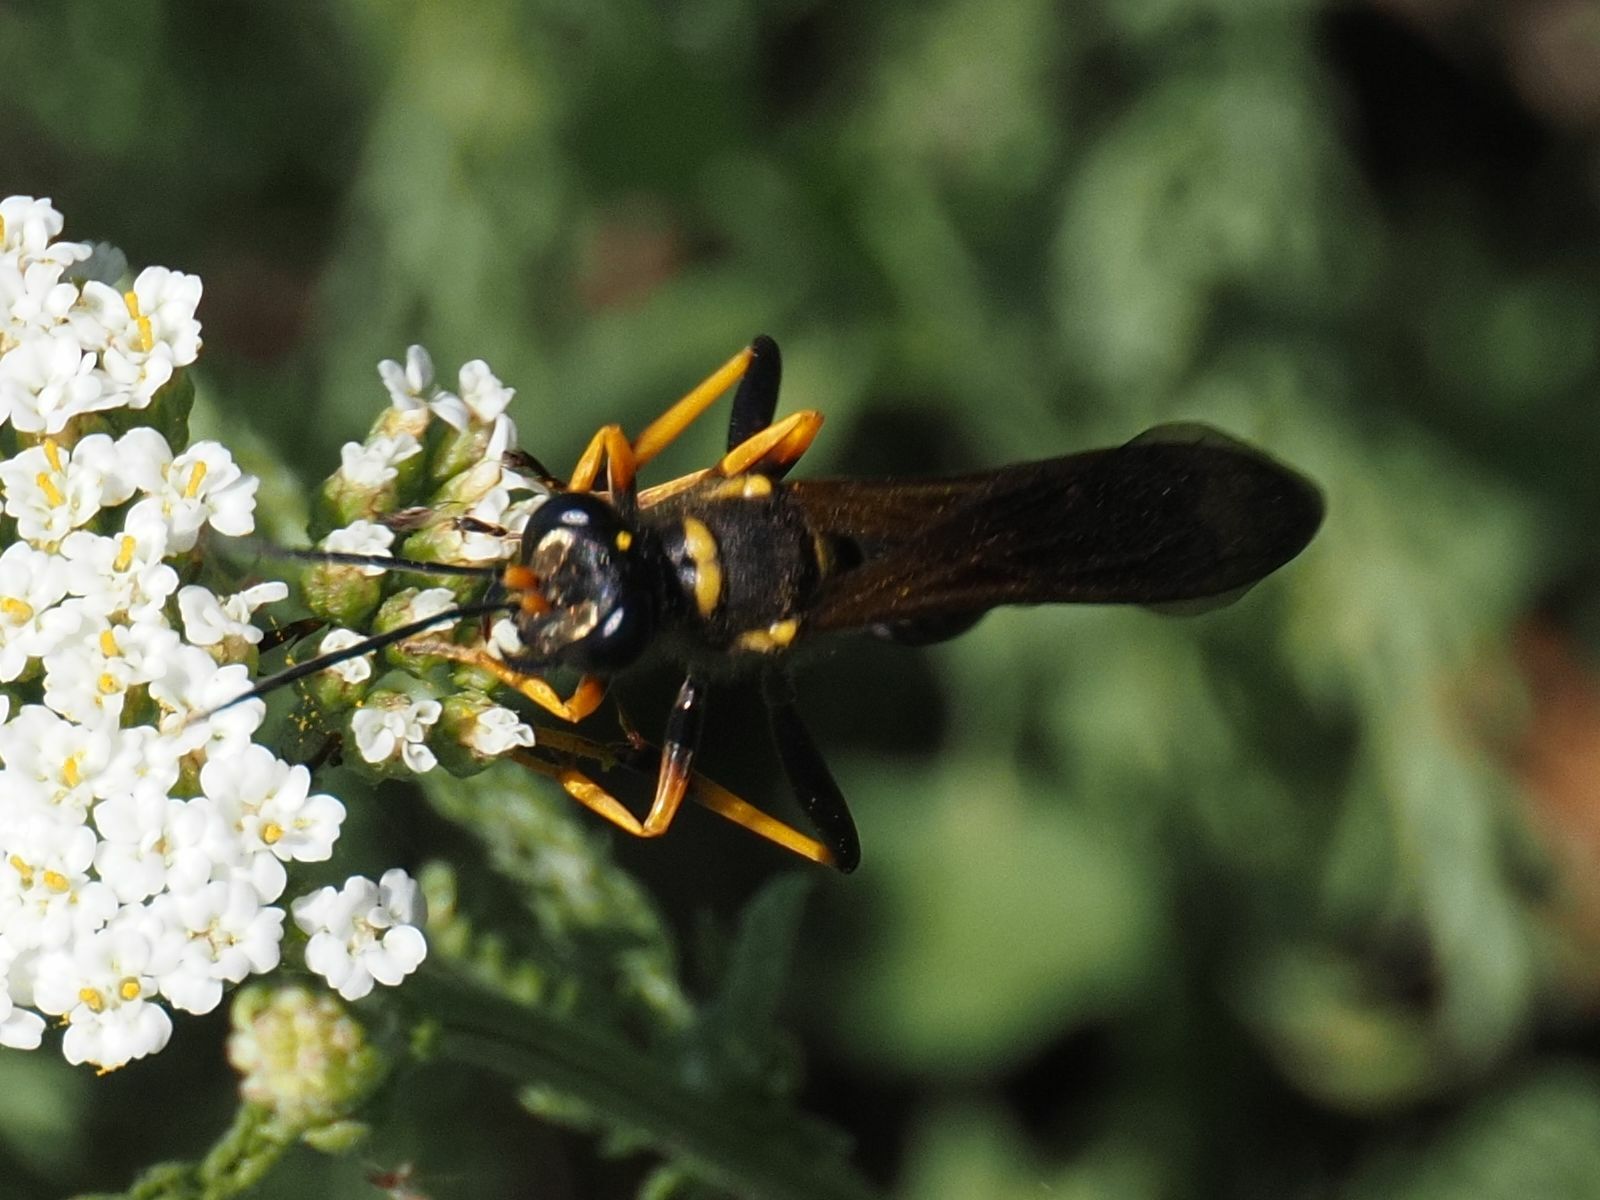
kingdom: Animalia
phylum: Arthropoda
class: Insecta
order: Hymenoptera
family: Sphecidae
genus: Sceliphron
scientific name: Sceliphron caementarium
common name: Mud dauber
